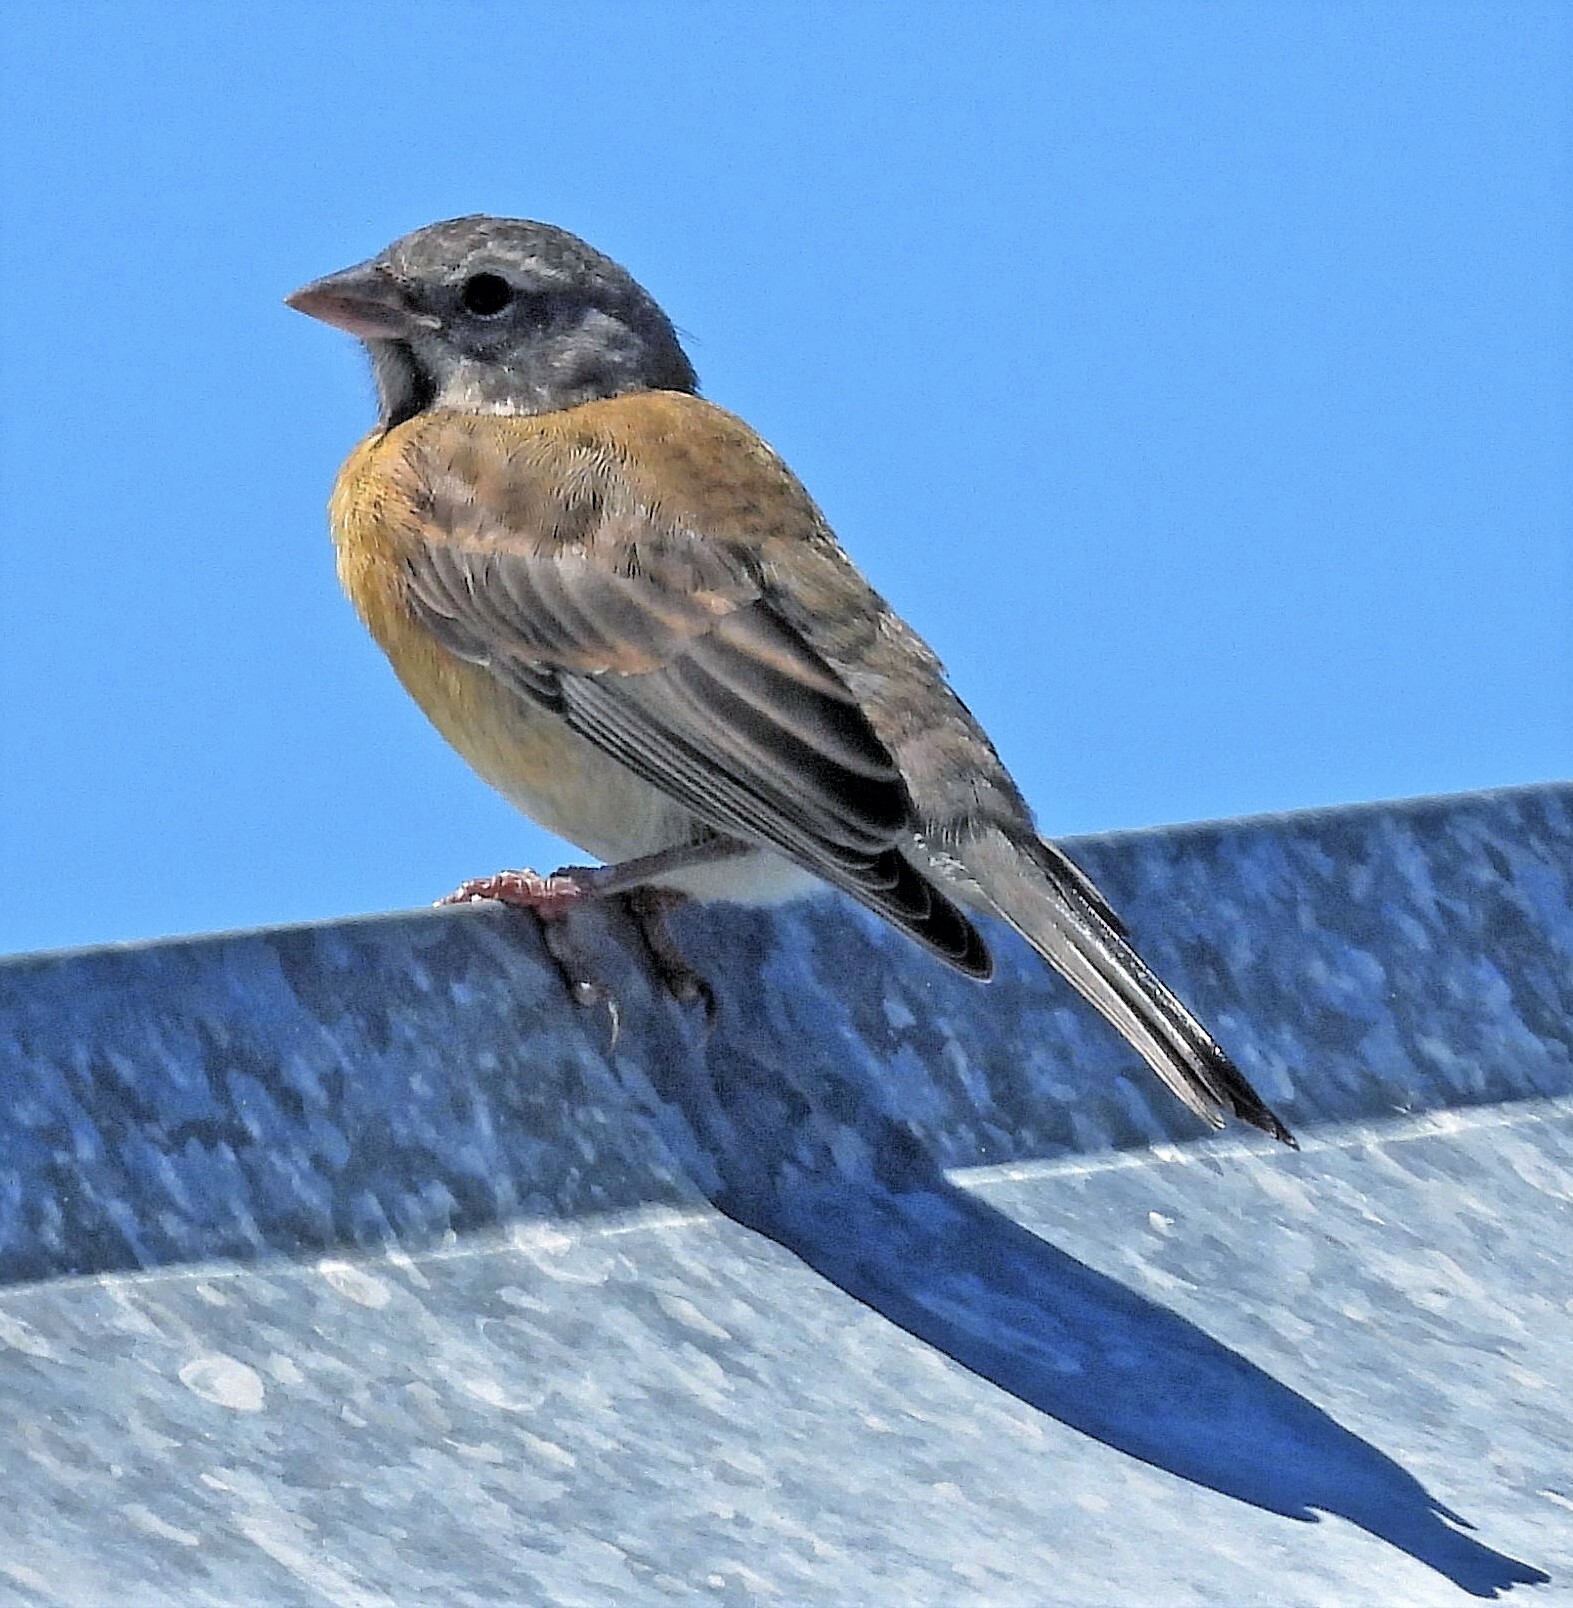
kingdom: Animalia
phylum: Chordata
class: Aves
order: Passeriformes
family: Thraupidae
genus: Phrygilus
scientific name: Phrygilus gayi
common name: Grey-hooded sierra finch
